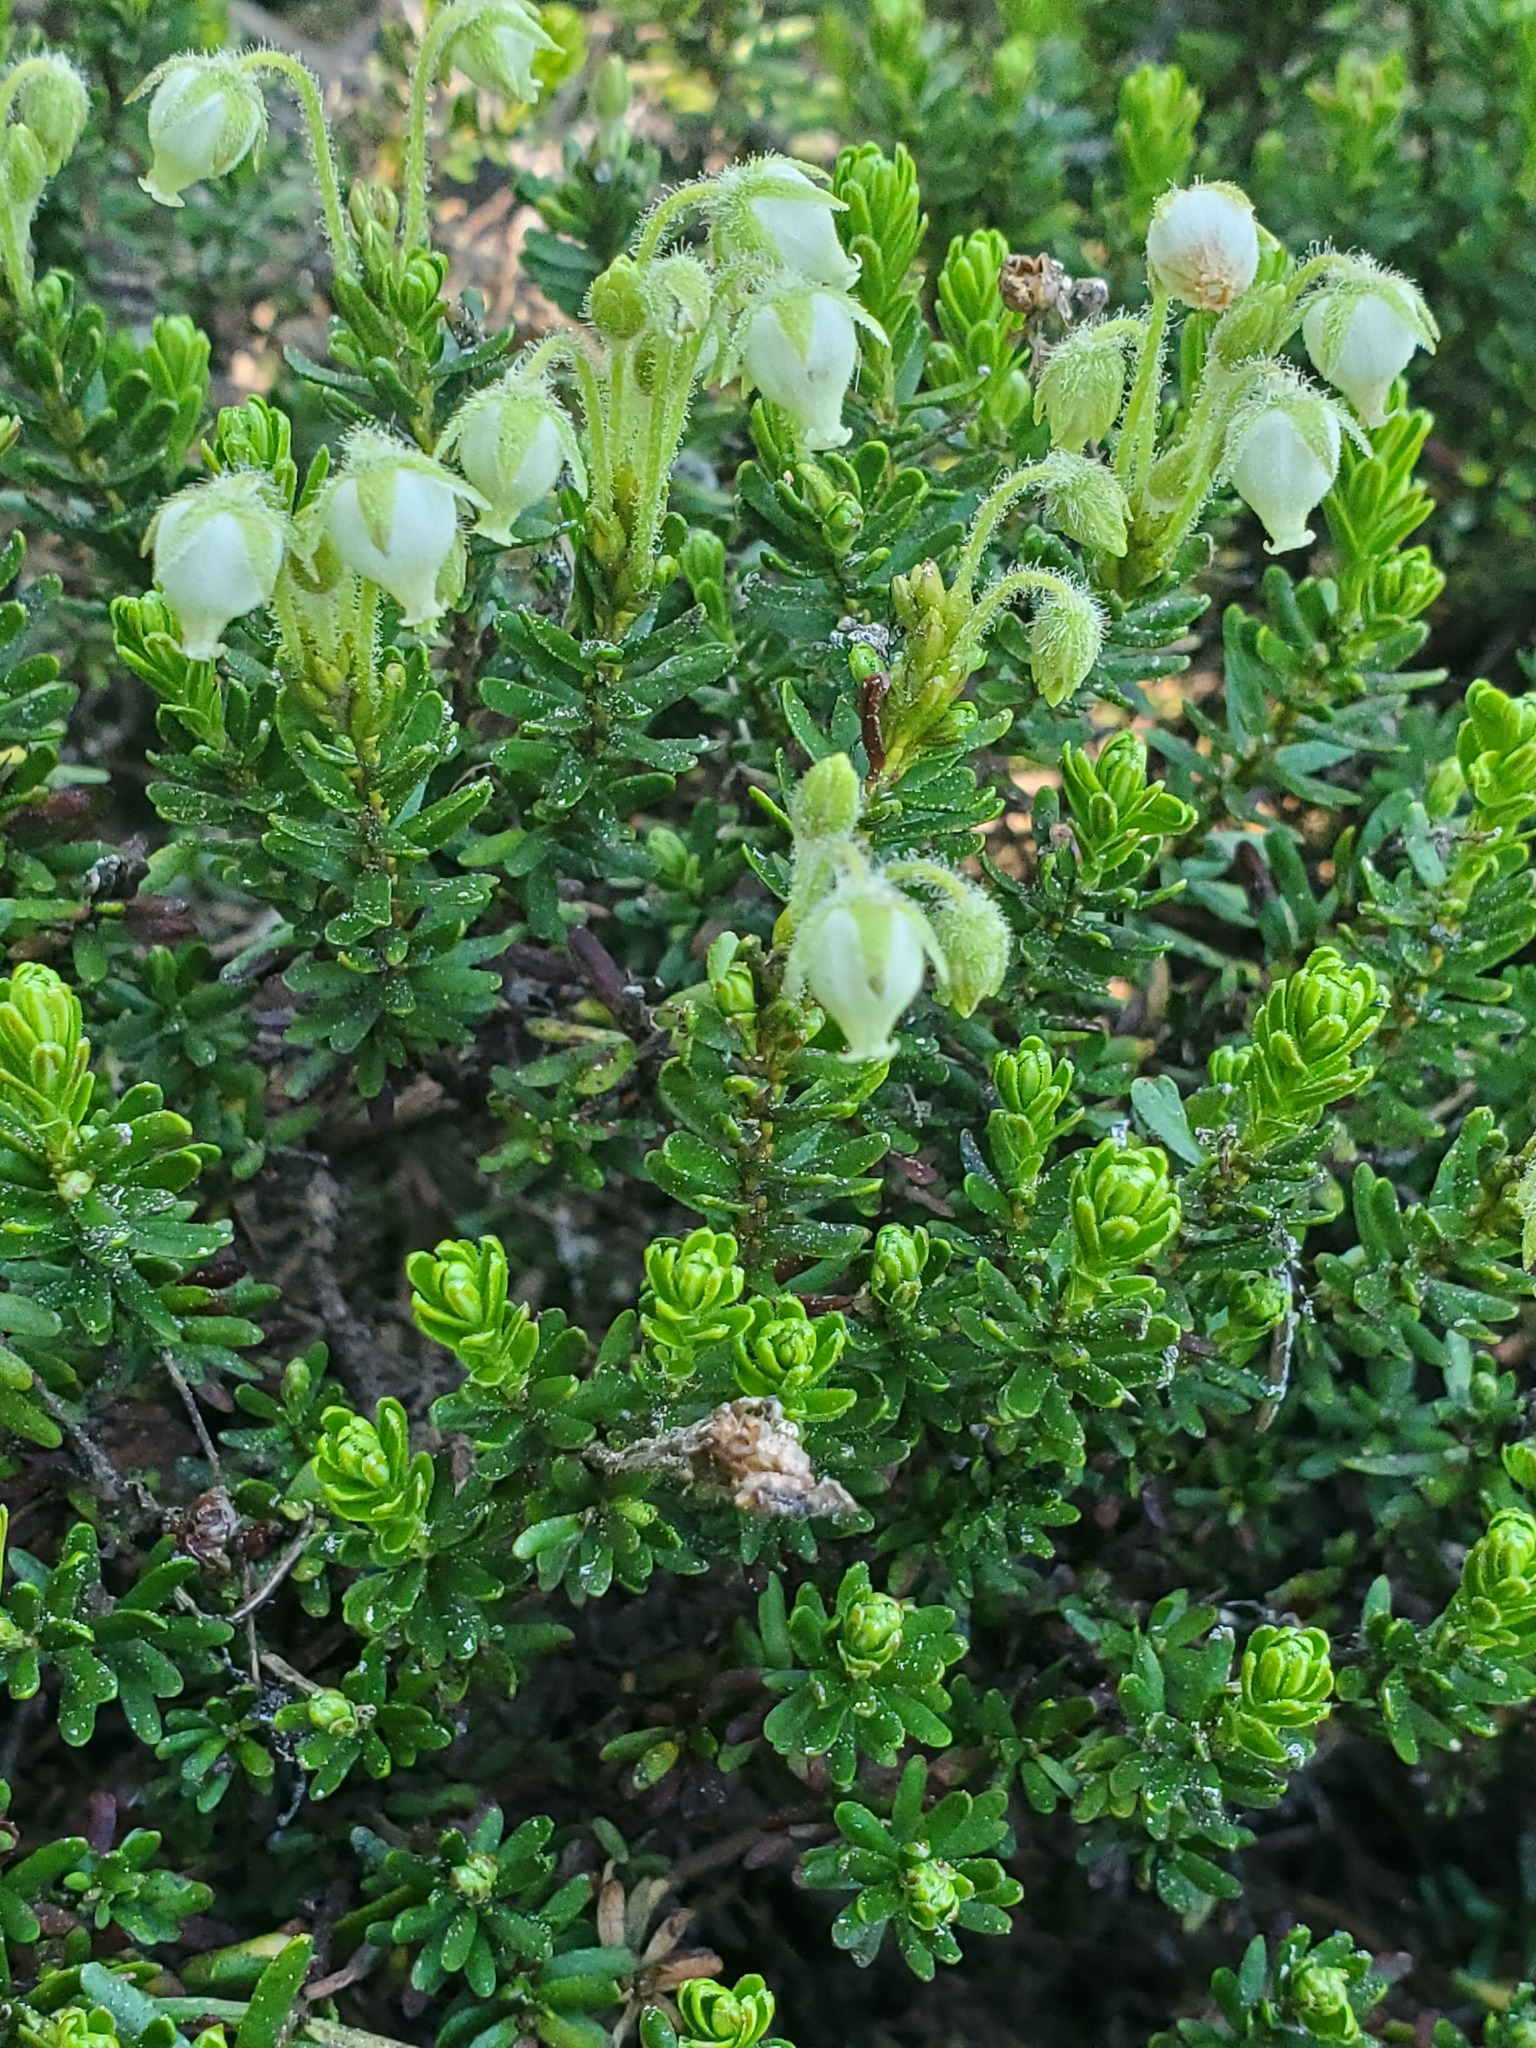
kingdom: Plantae
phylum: Tracheophyta
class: Magnoliopsida
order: Ericales
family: Ericaceae
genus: Phyllodoce
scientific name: Phyllodoce glanduliflora
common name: Cream mountain heather
